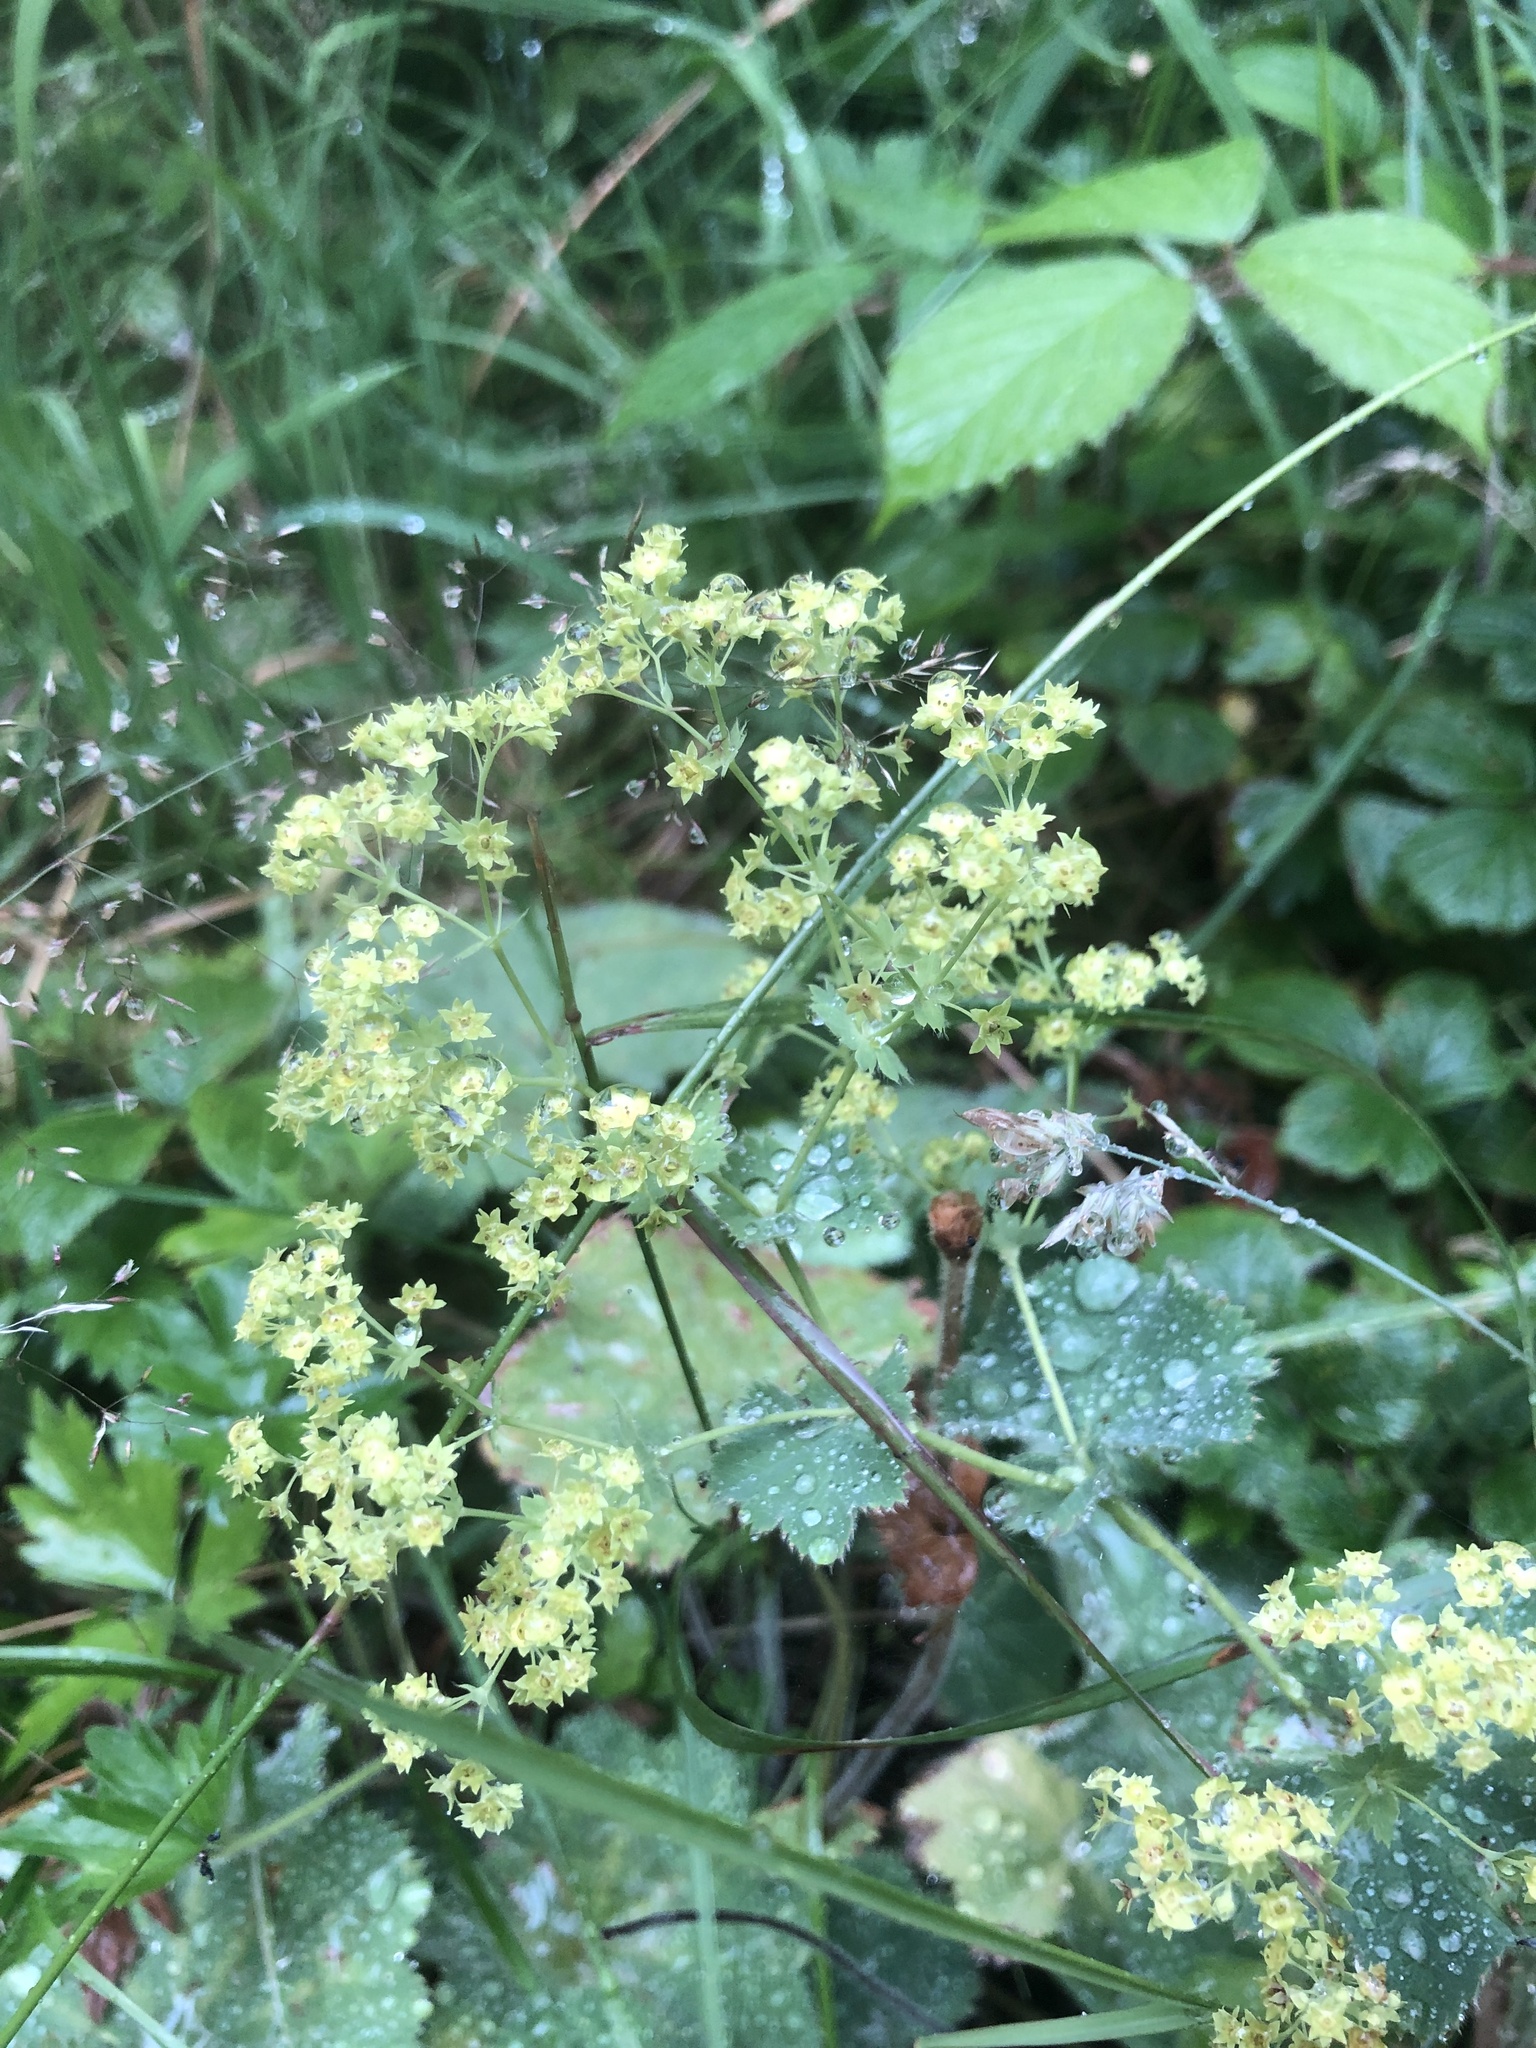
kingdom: Plantae
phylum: Tracheophyta
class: Magnoliopsida
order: Rosales
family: Rosaceae
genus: Alchemilla
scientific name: Alchemilla mollis
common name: Lady's-mantle
